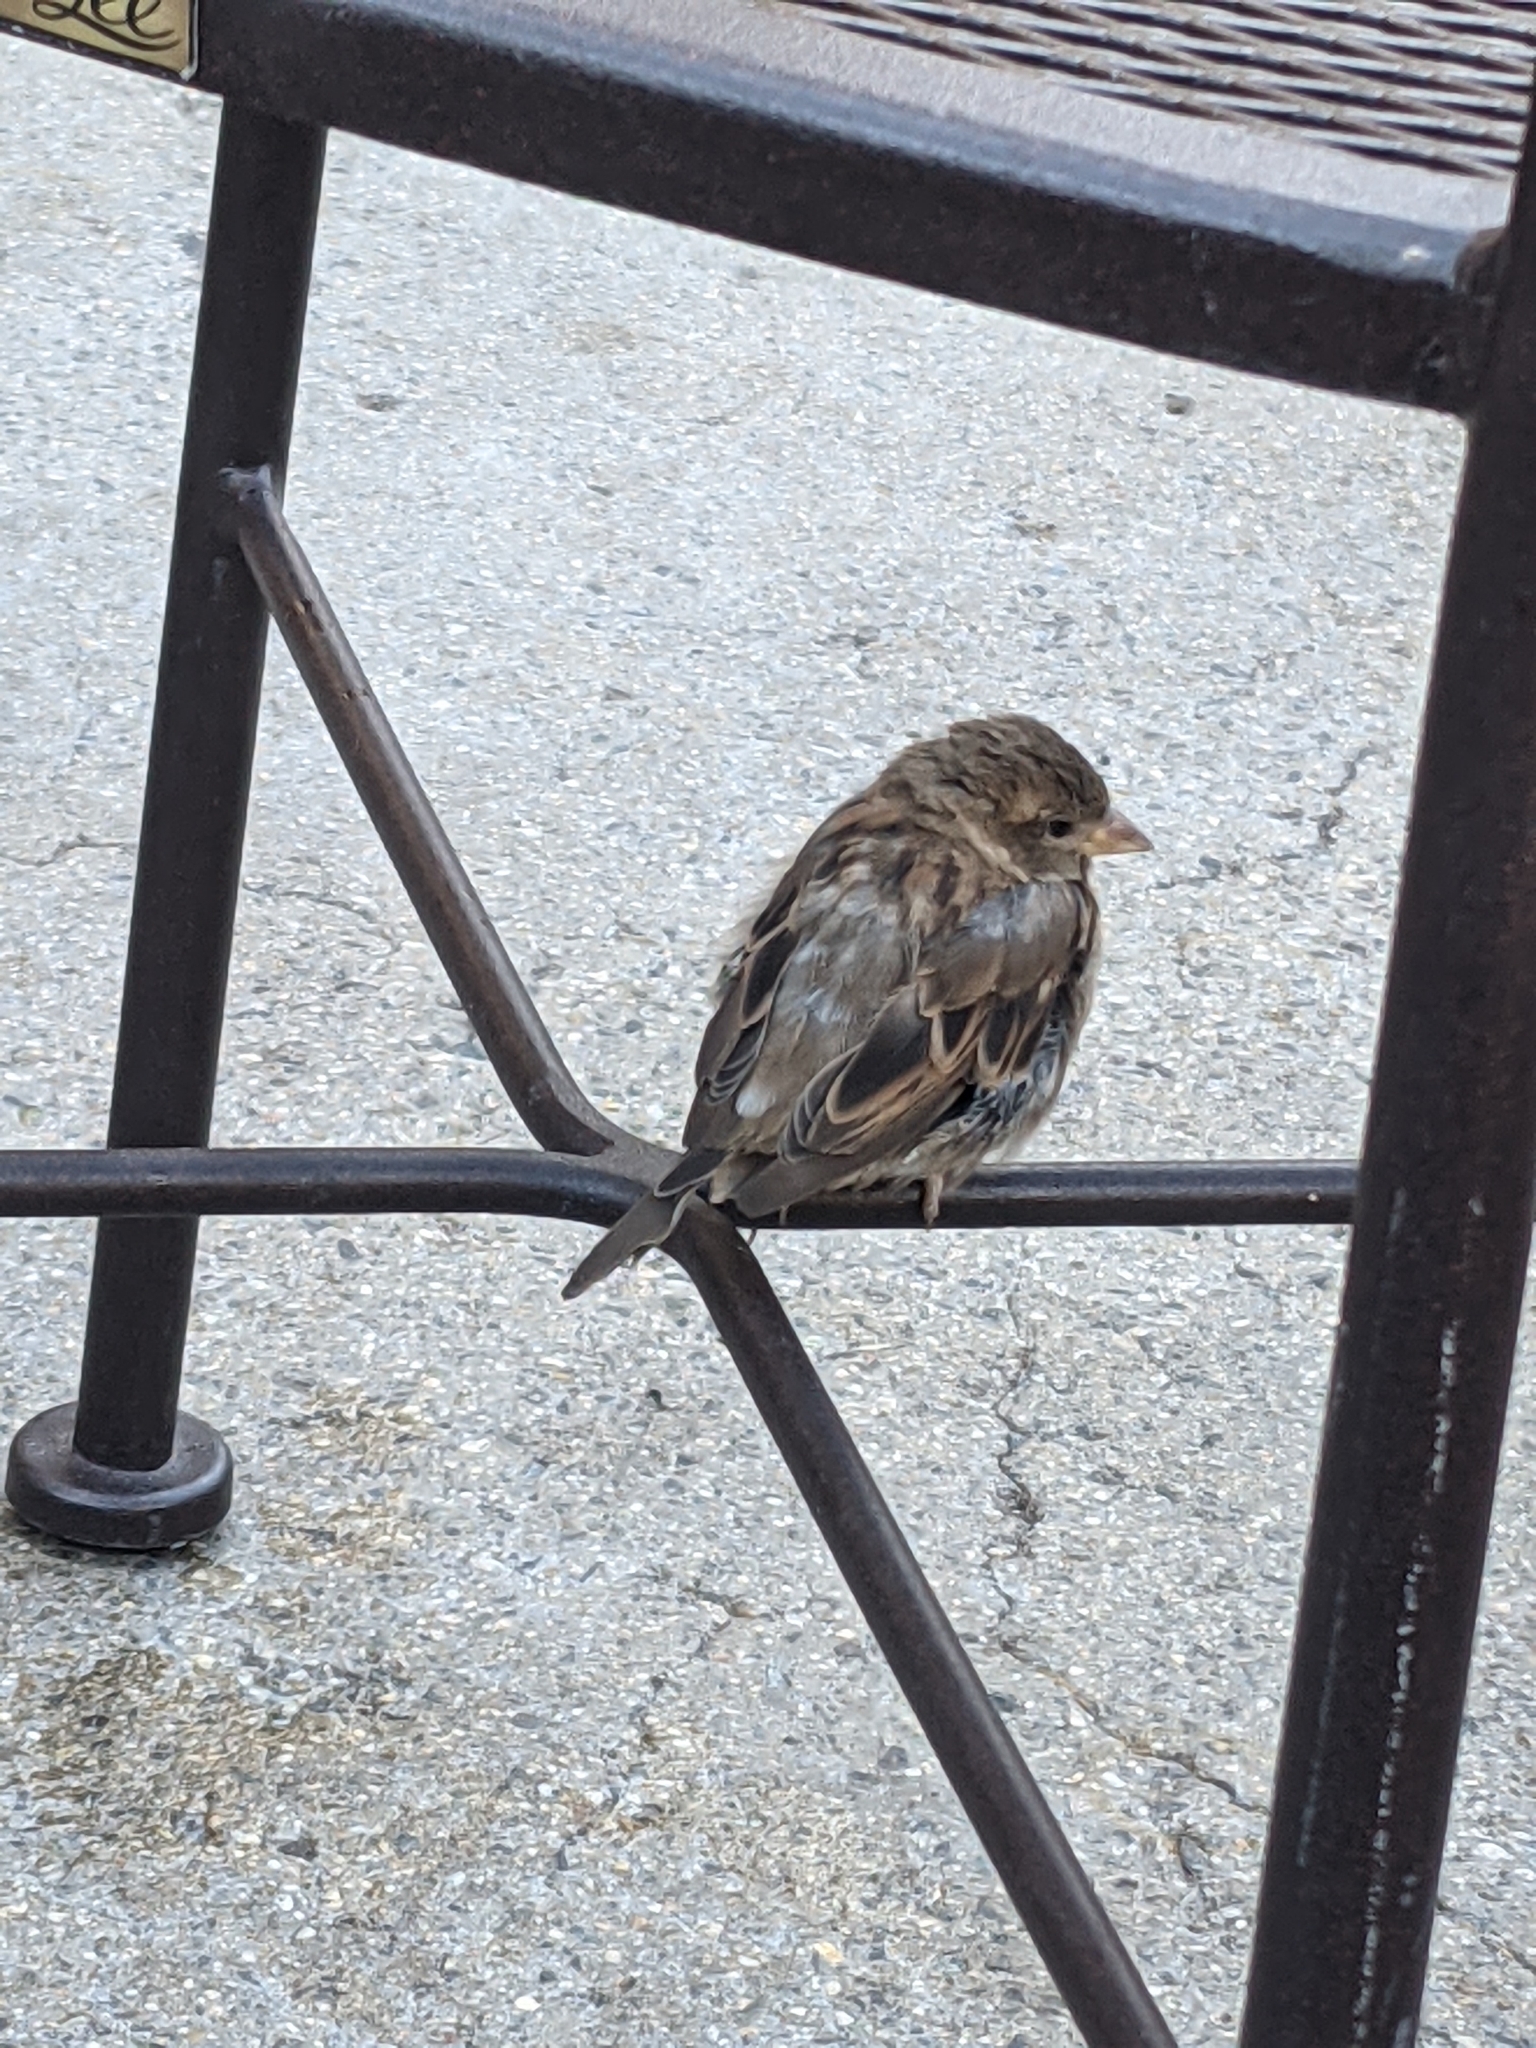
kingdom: Animalia
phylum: Chordata
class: Aves
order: Passeriformes
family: Passeridae
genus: Passer
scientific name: Passer domesticus
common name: House sparrow
